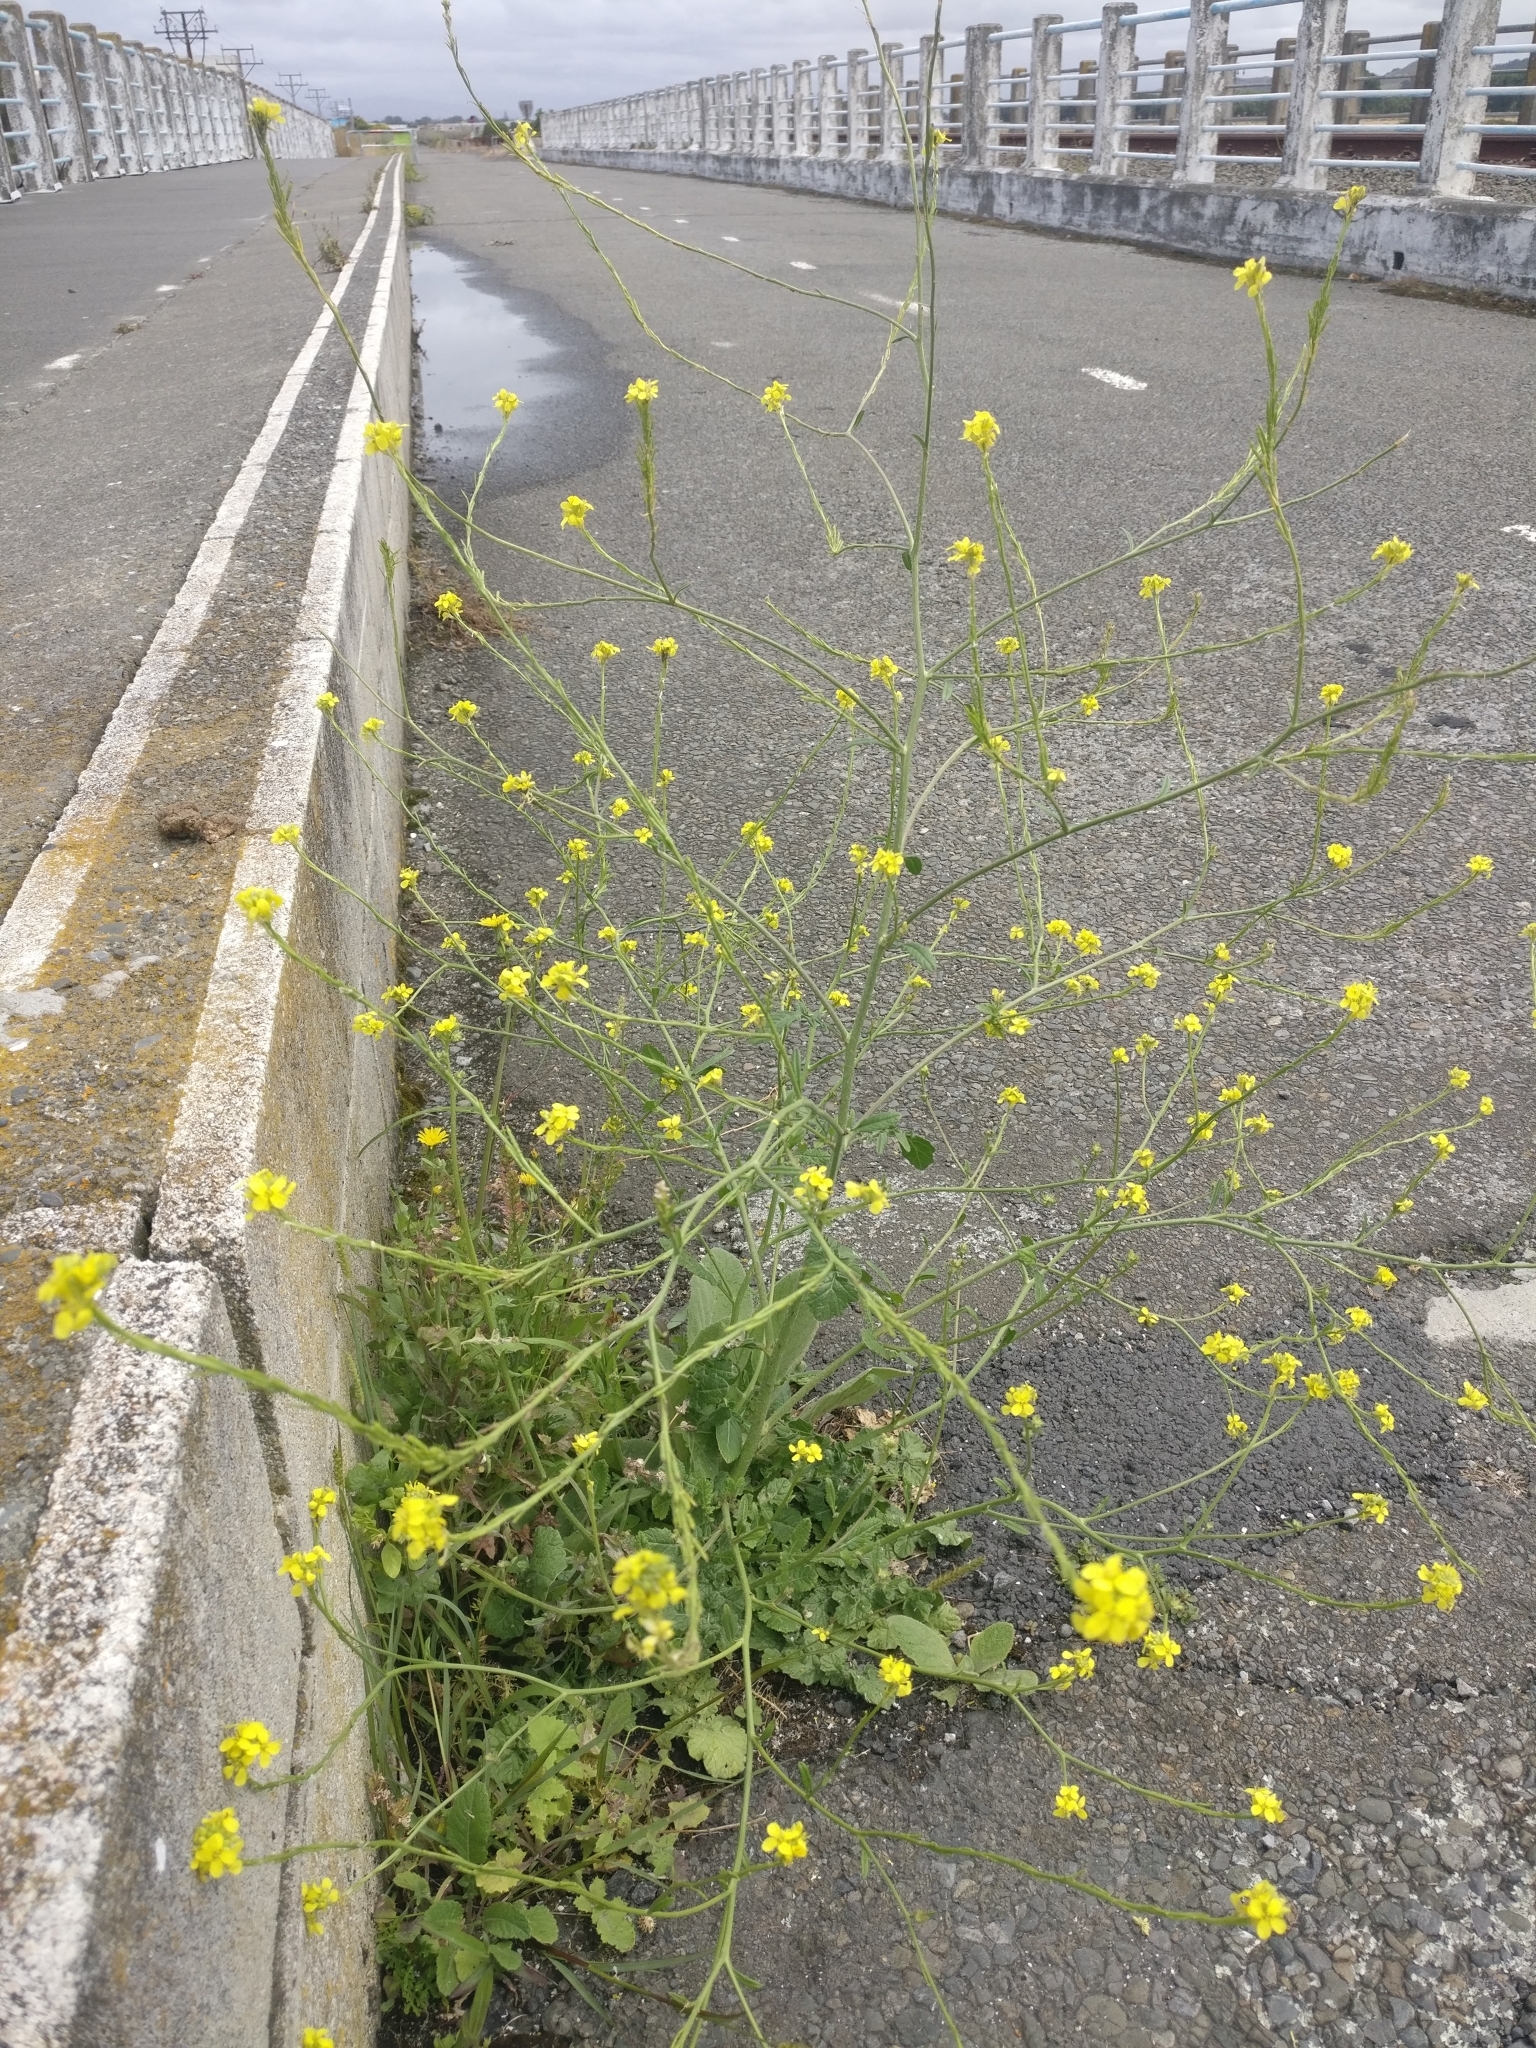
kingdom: Plantae
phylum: Tracheophyta
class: Magnoliopsida
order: Brassicales
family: Brassicaceae
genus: Hirschfeldia
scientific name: Hirschfeldia incana
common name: Hoary mustard
